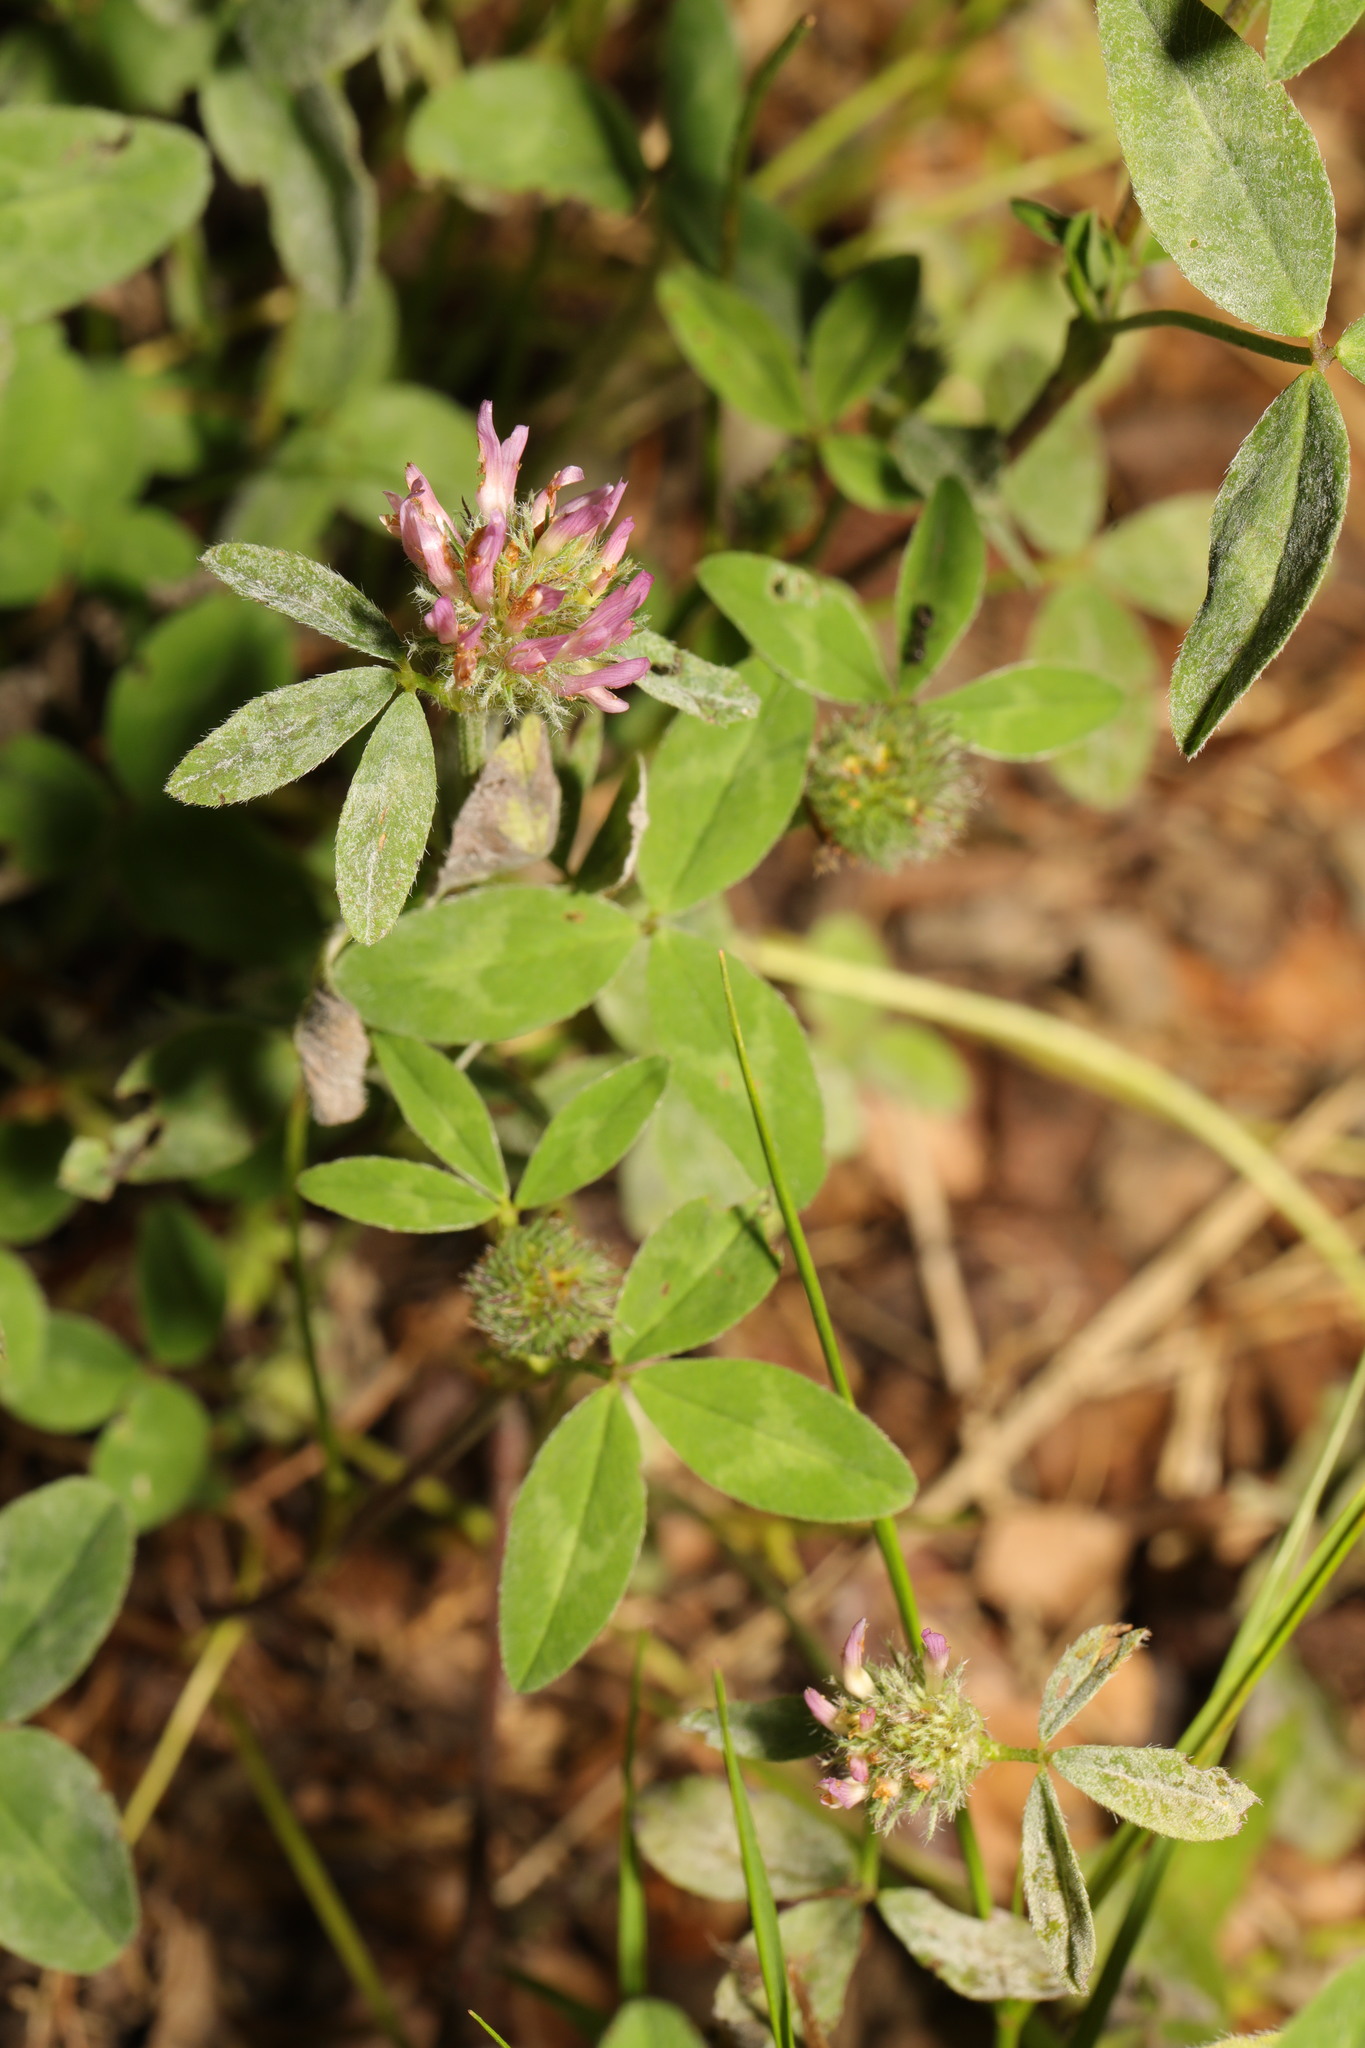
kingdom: Plantae
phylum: Tracheophyta
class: Magnoliopsida
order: Fabales
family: Fabaceae
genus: Trifolium
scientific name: Trifolium pratense
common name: Red clover
